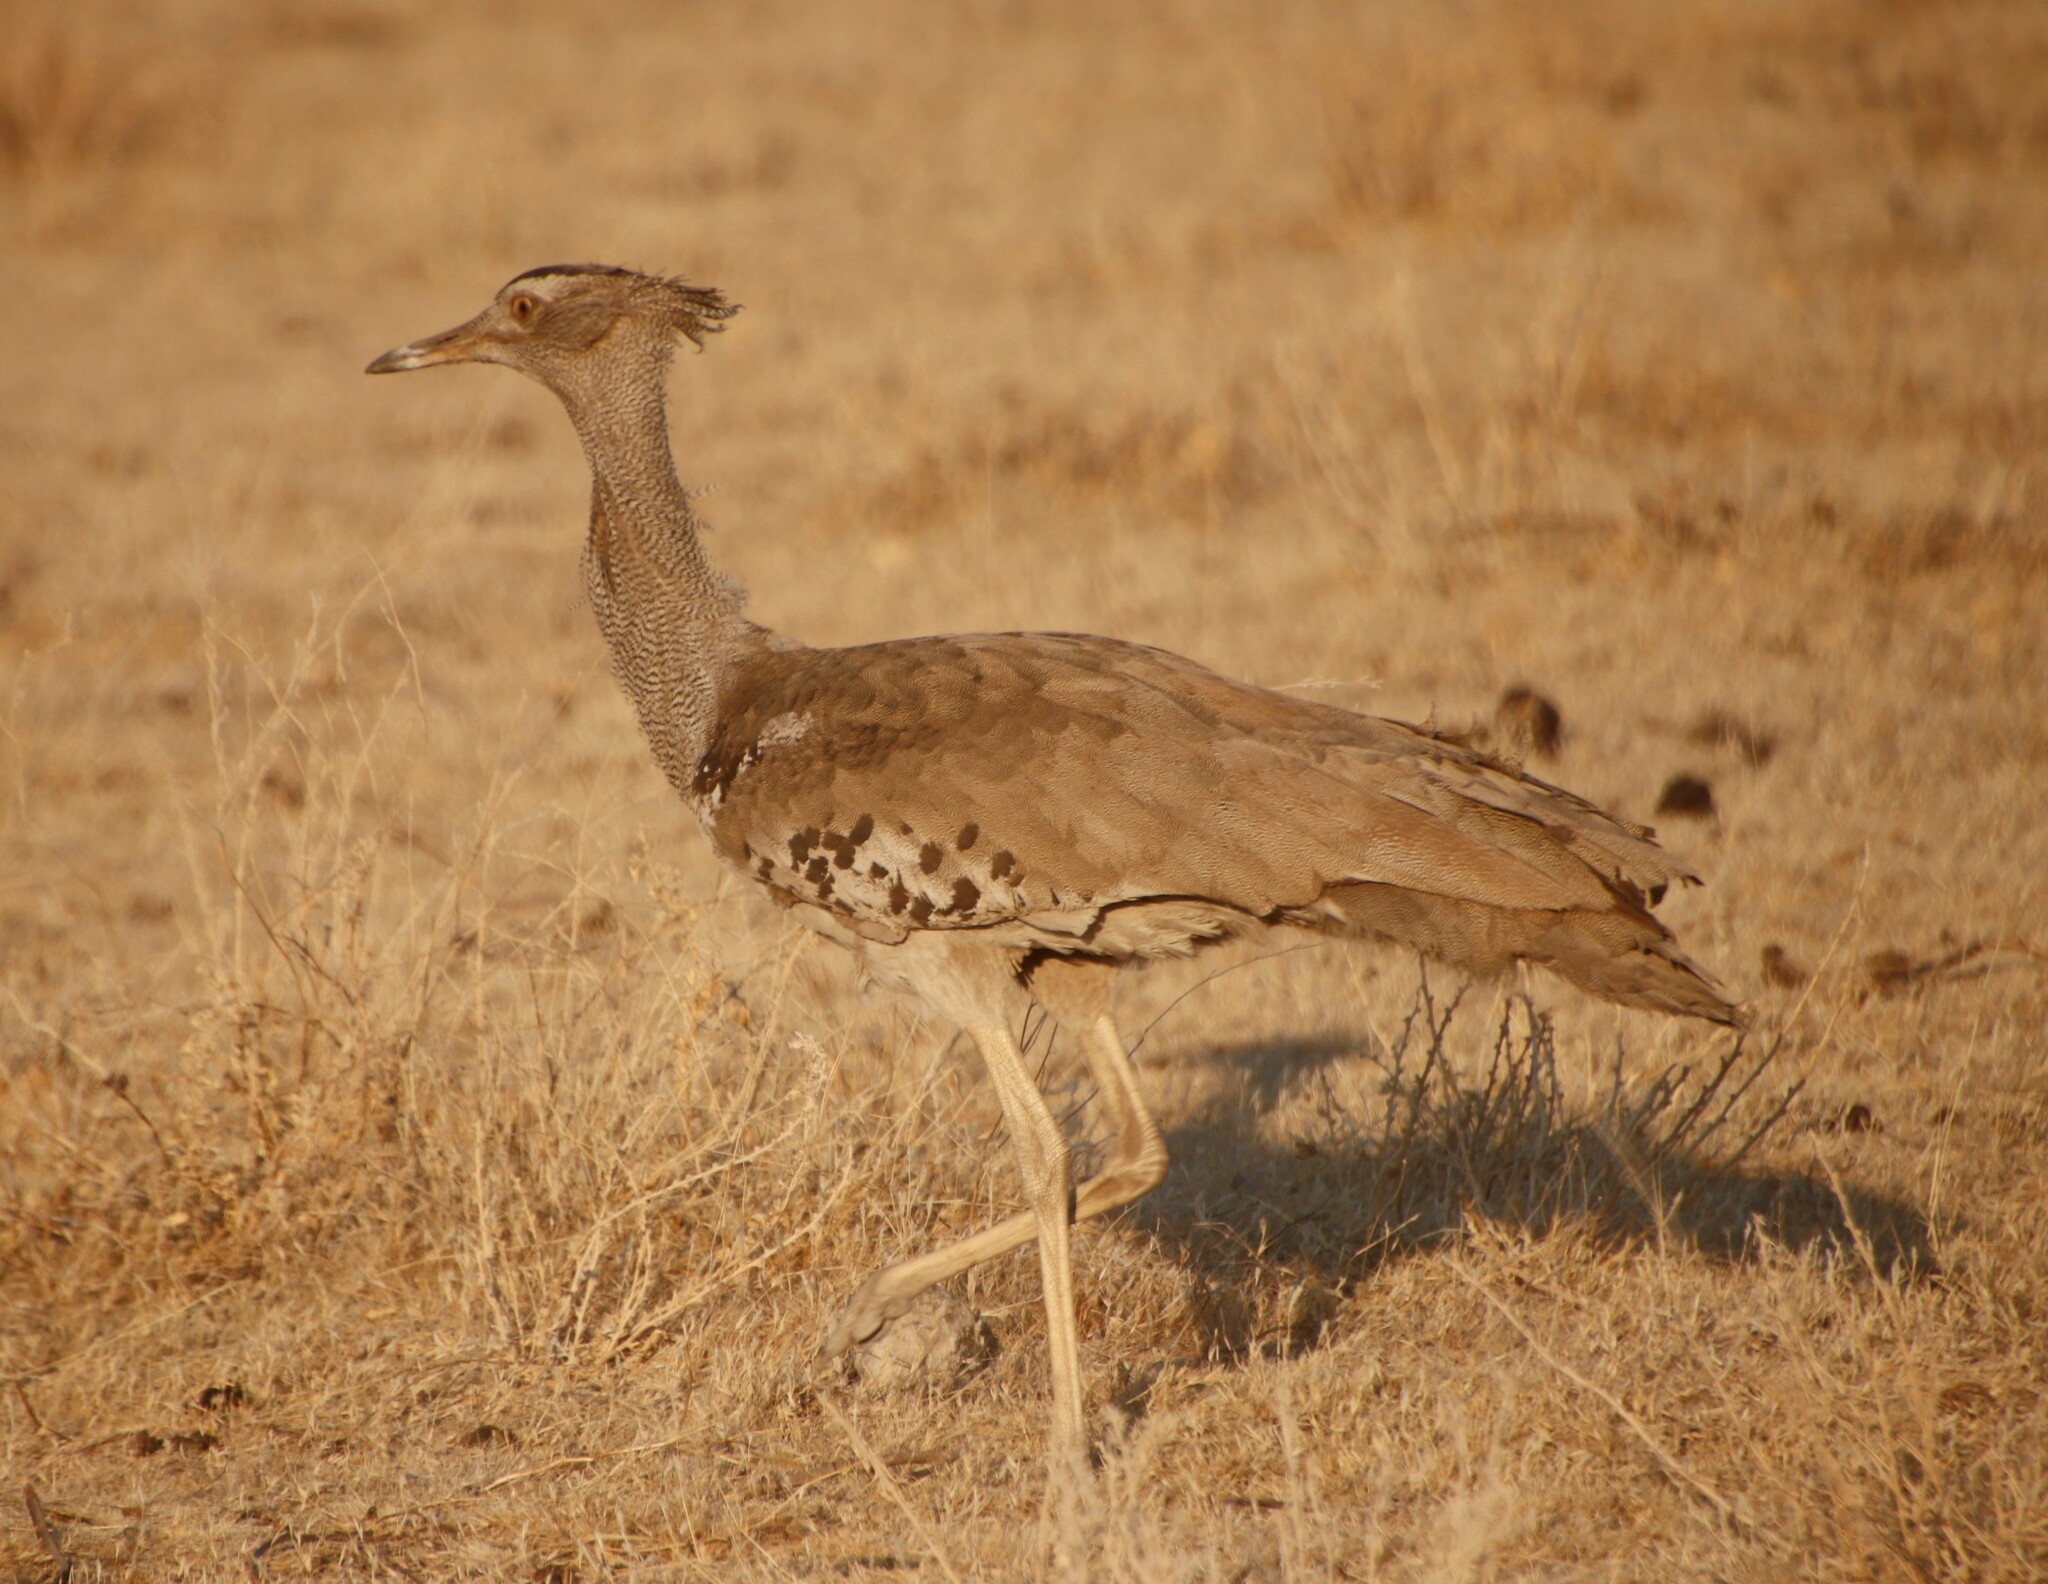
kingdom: Animalia
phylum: Chordata
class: Aves
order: Otidiformes
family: Otididae
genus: Ardeotis
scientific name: Ardeotis kori
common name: Kori bustard
